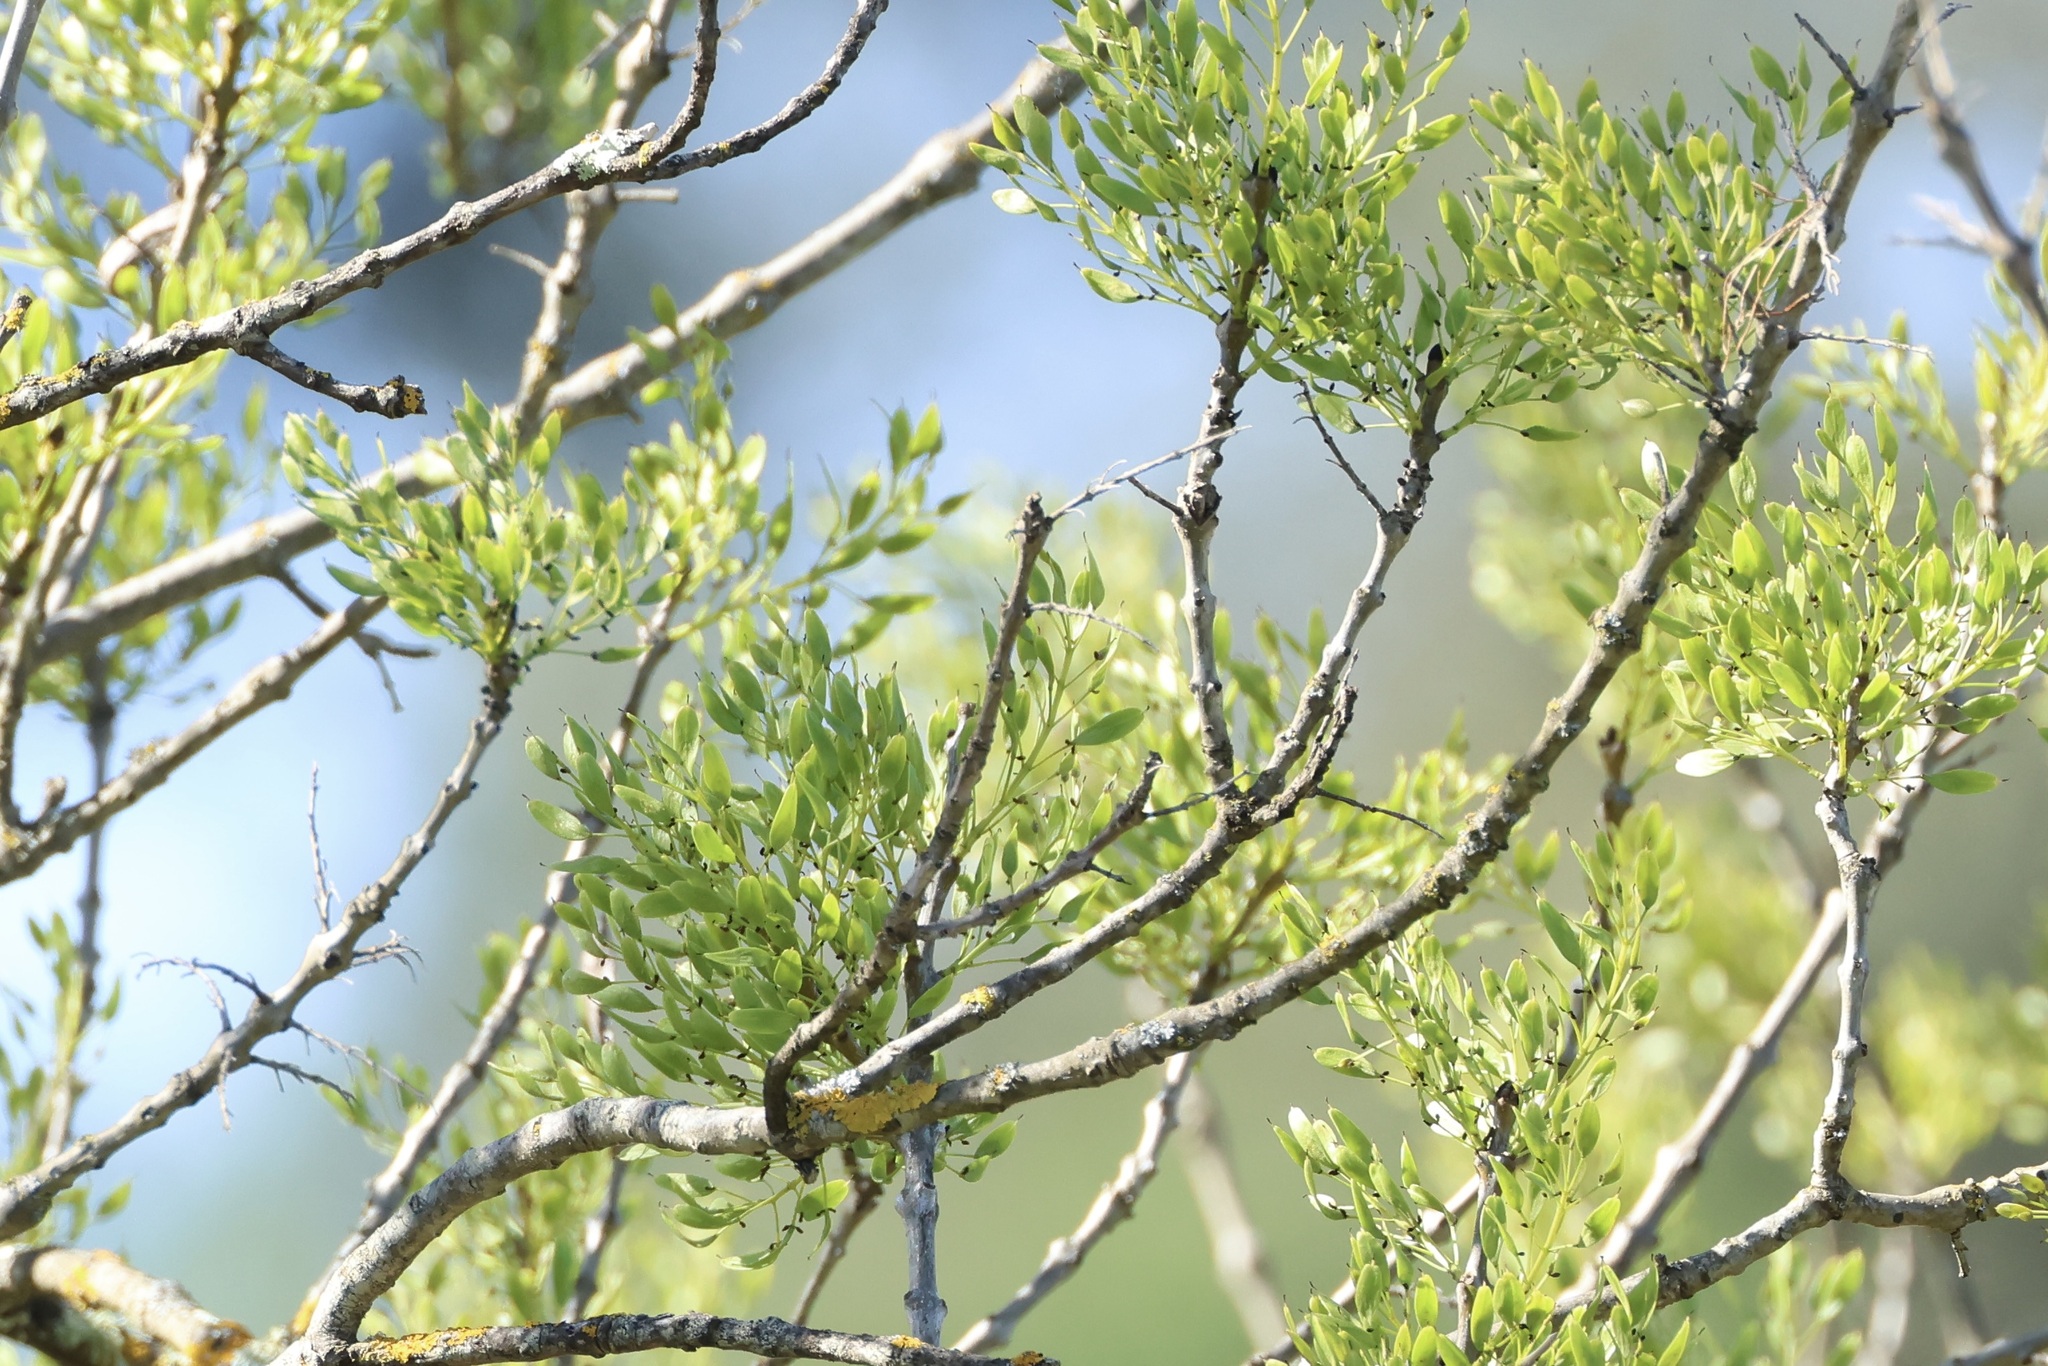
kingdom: Plantae
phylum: Tracheophyta
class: Magnoliopsida
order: Lamiales
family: Oleaceae
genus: Fraxinus
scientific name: Fraxinus angustifolia
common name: Narrow-leafed ash
